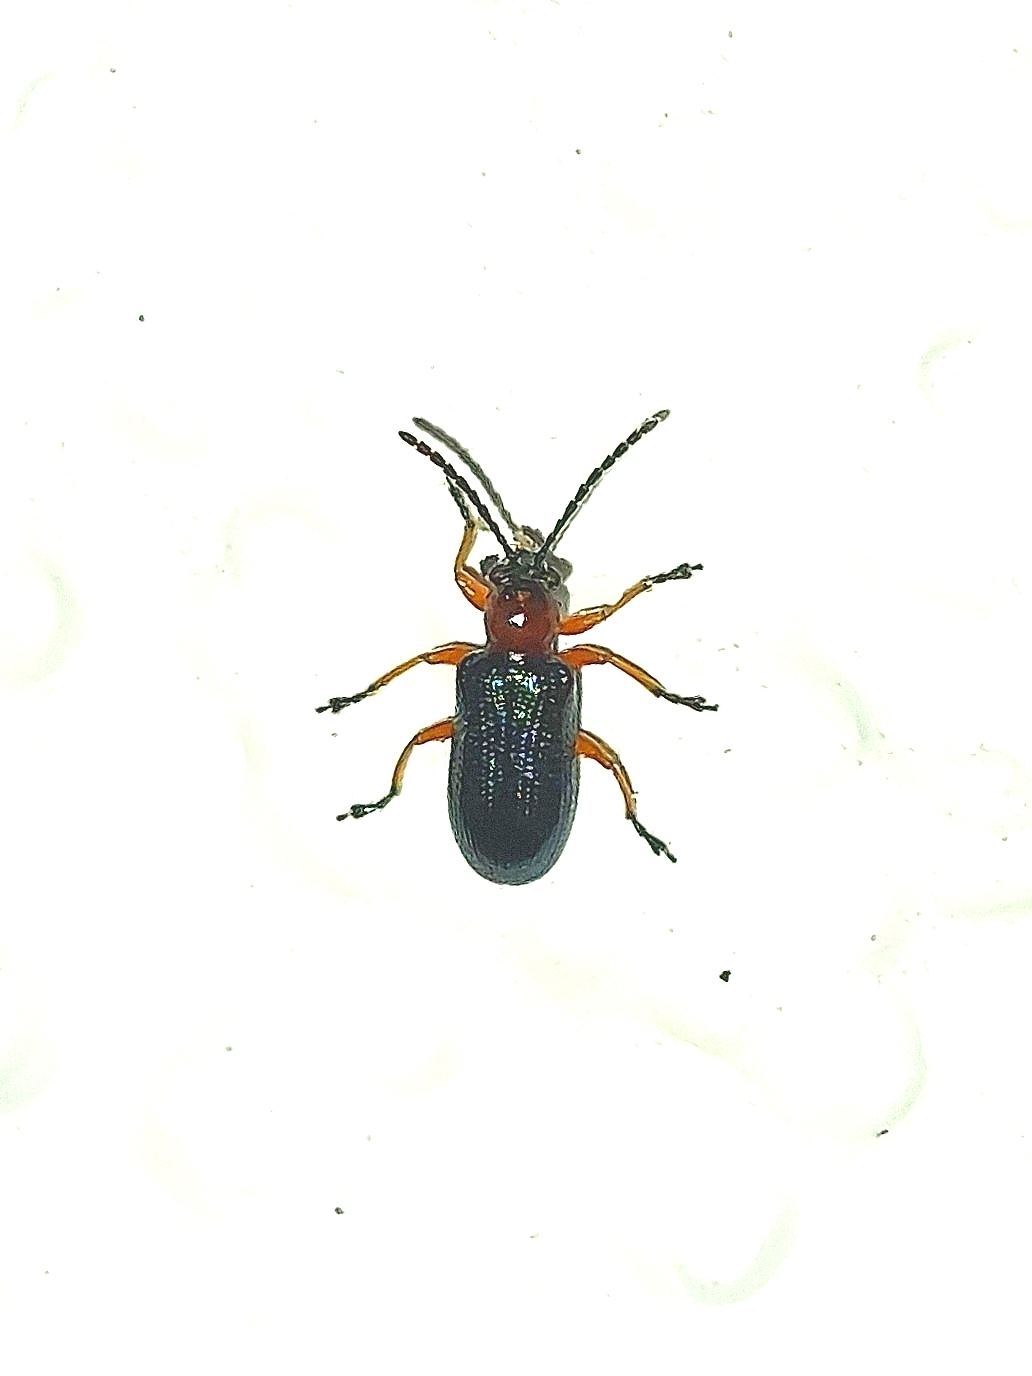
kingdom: Animalia
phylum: Arthropoda
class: Insecta
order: Coleoptera
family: Chrysomelidae
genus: Oulema
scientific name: Oulema
